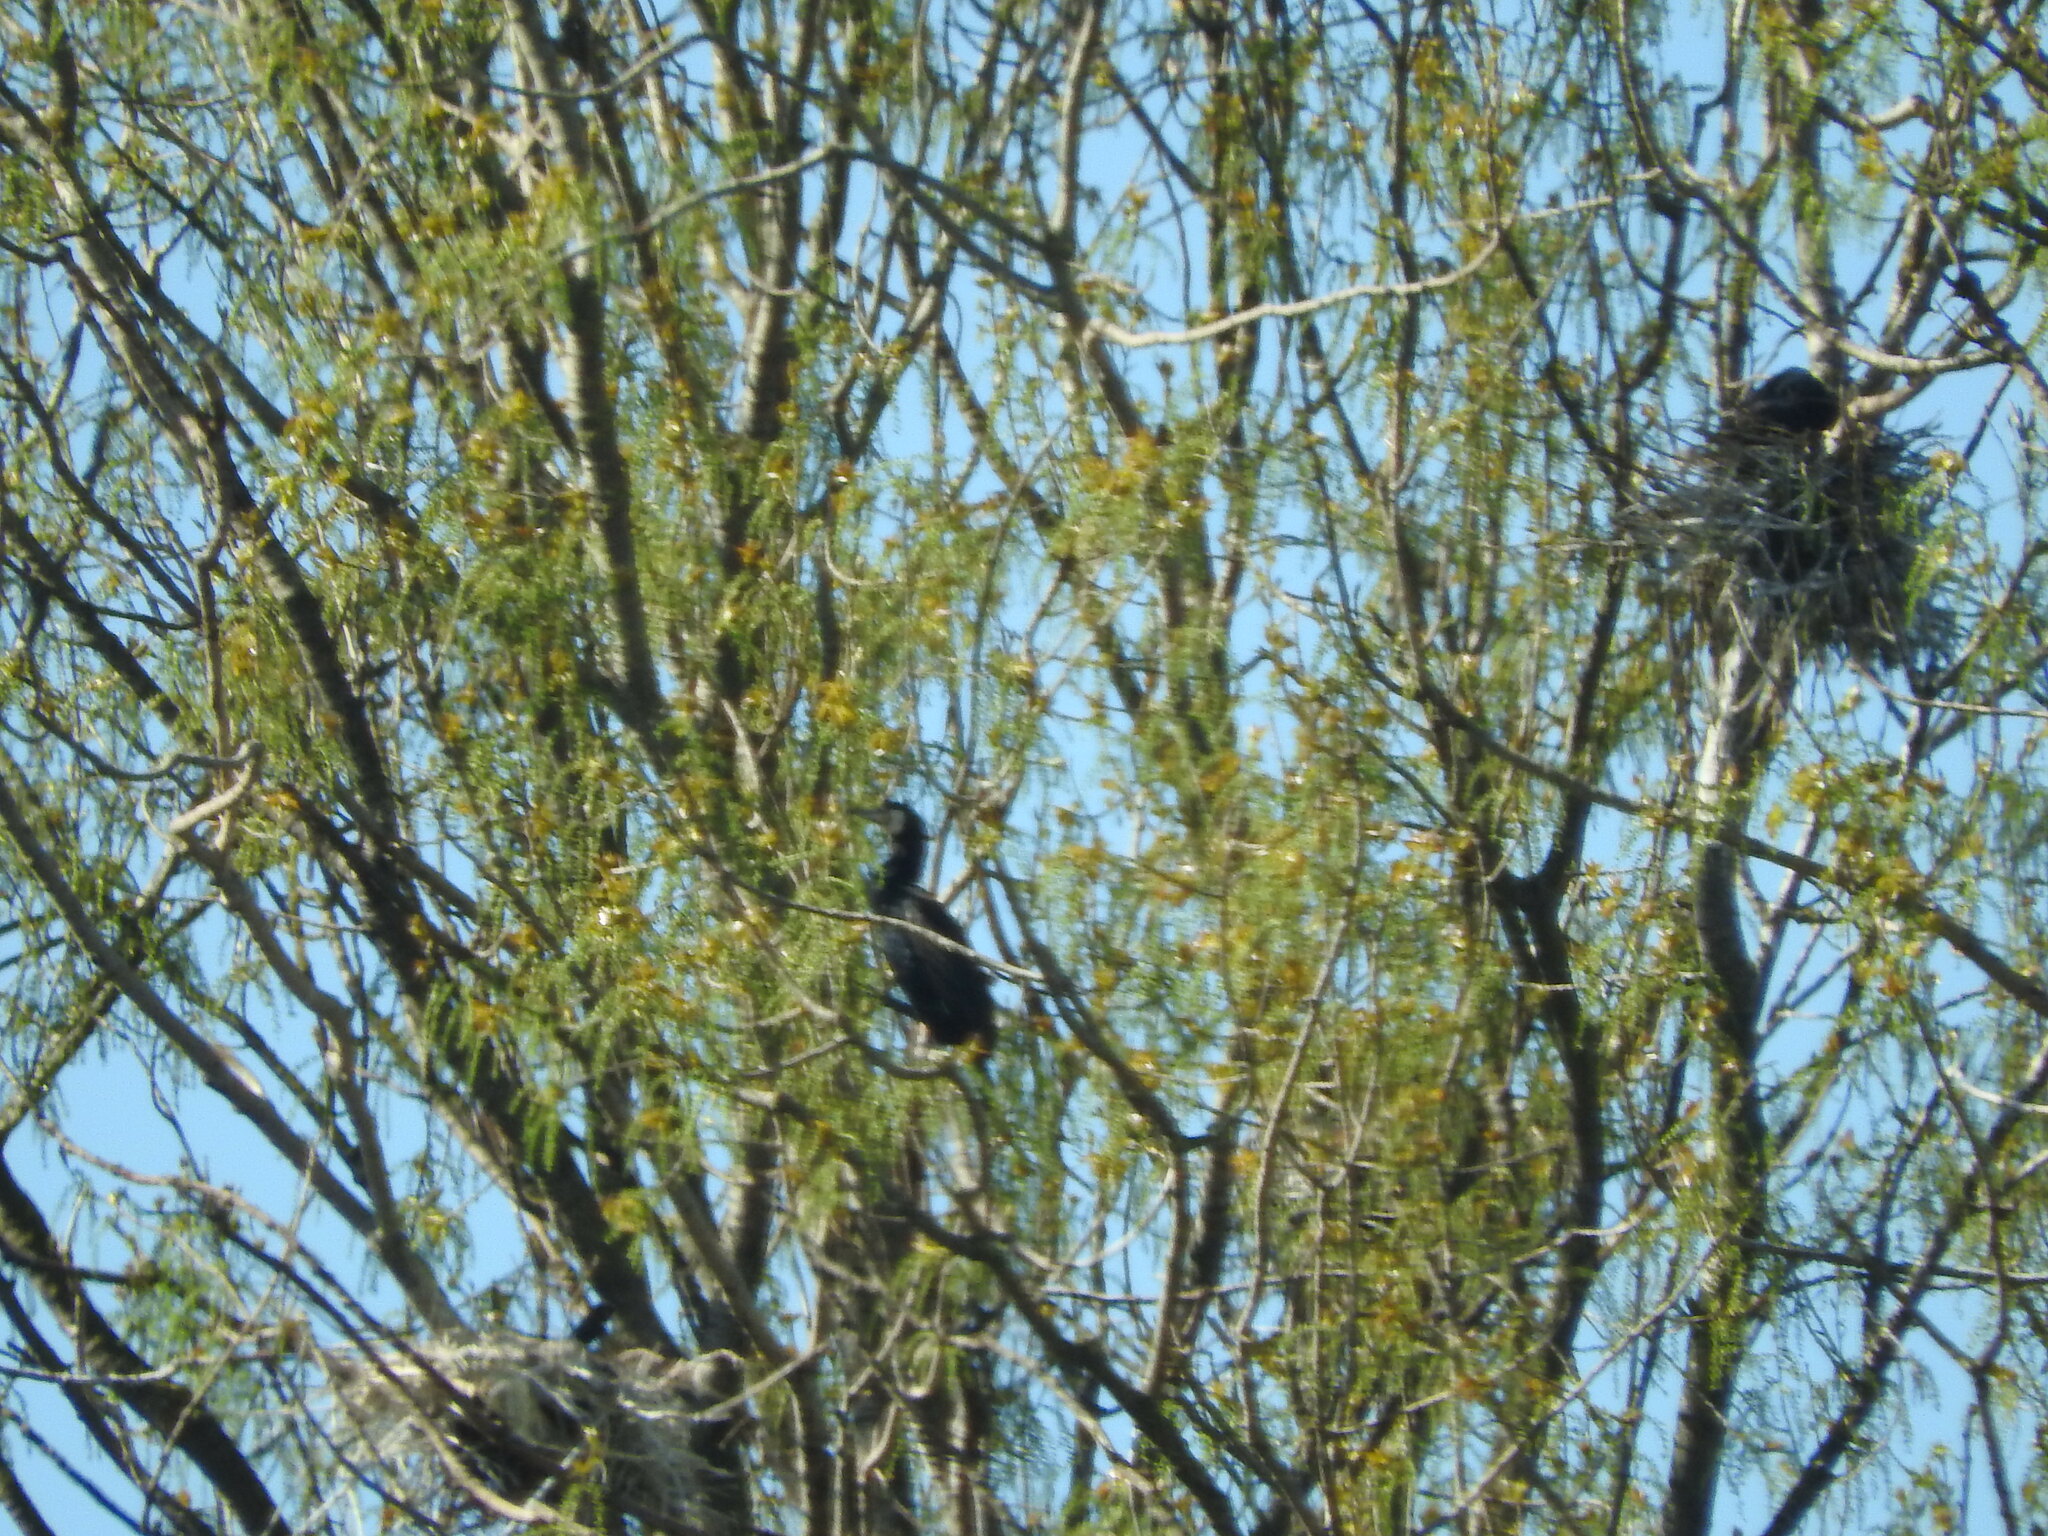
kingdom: Animalia
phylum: Chordata
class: Aves
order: Suliformes
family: Phalacrocoracidae
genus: Phalacrocorax
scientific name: Phalacrocorax carbo
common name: Great cormorant
